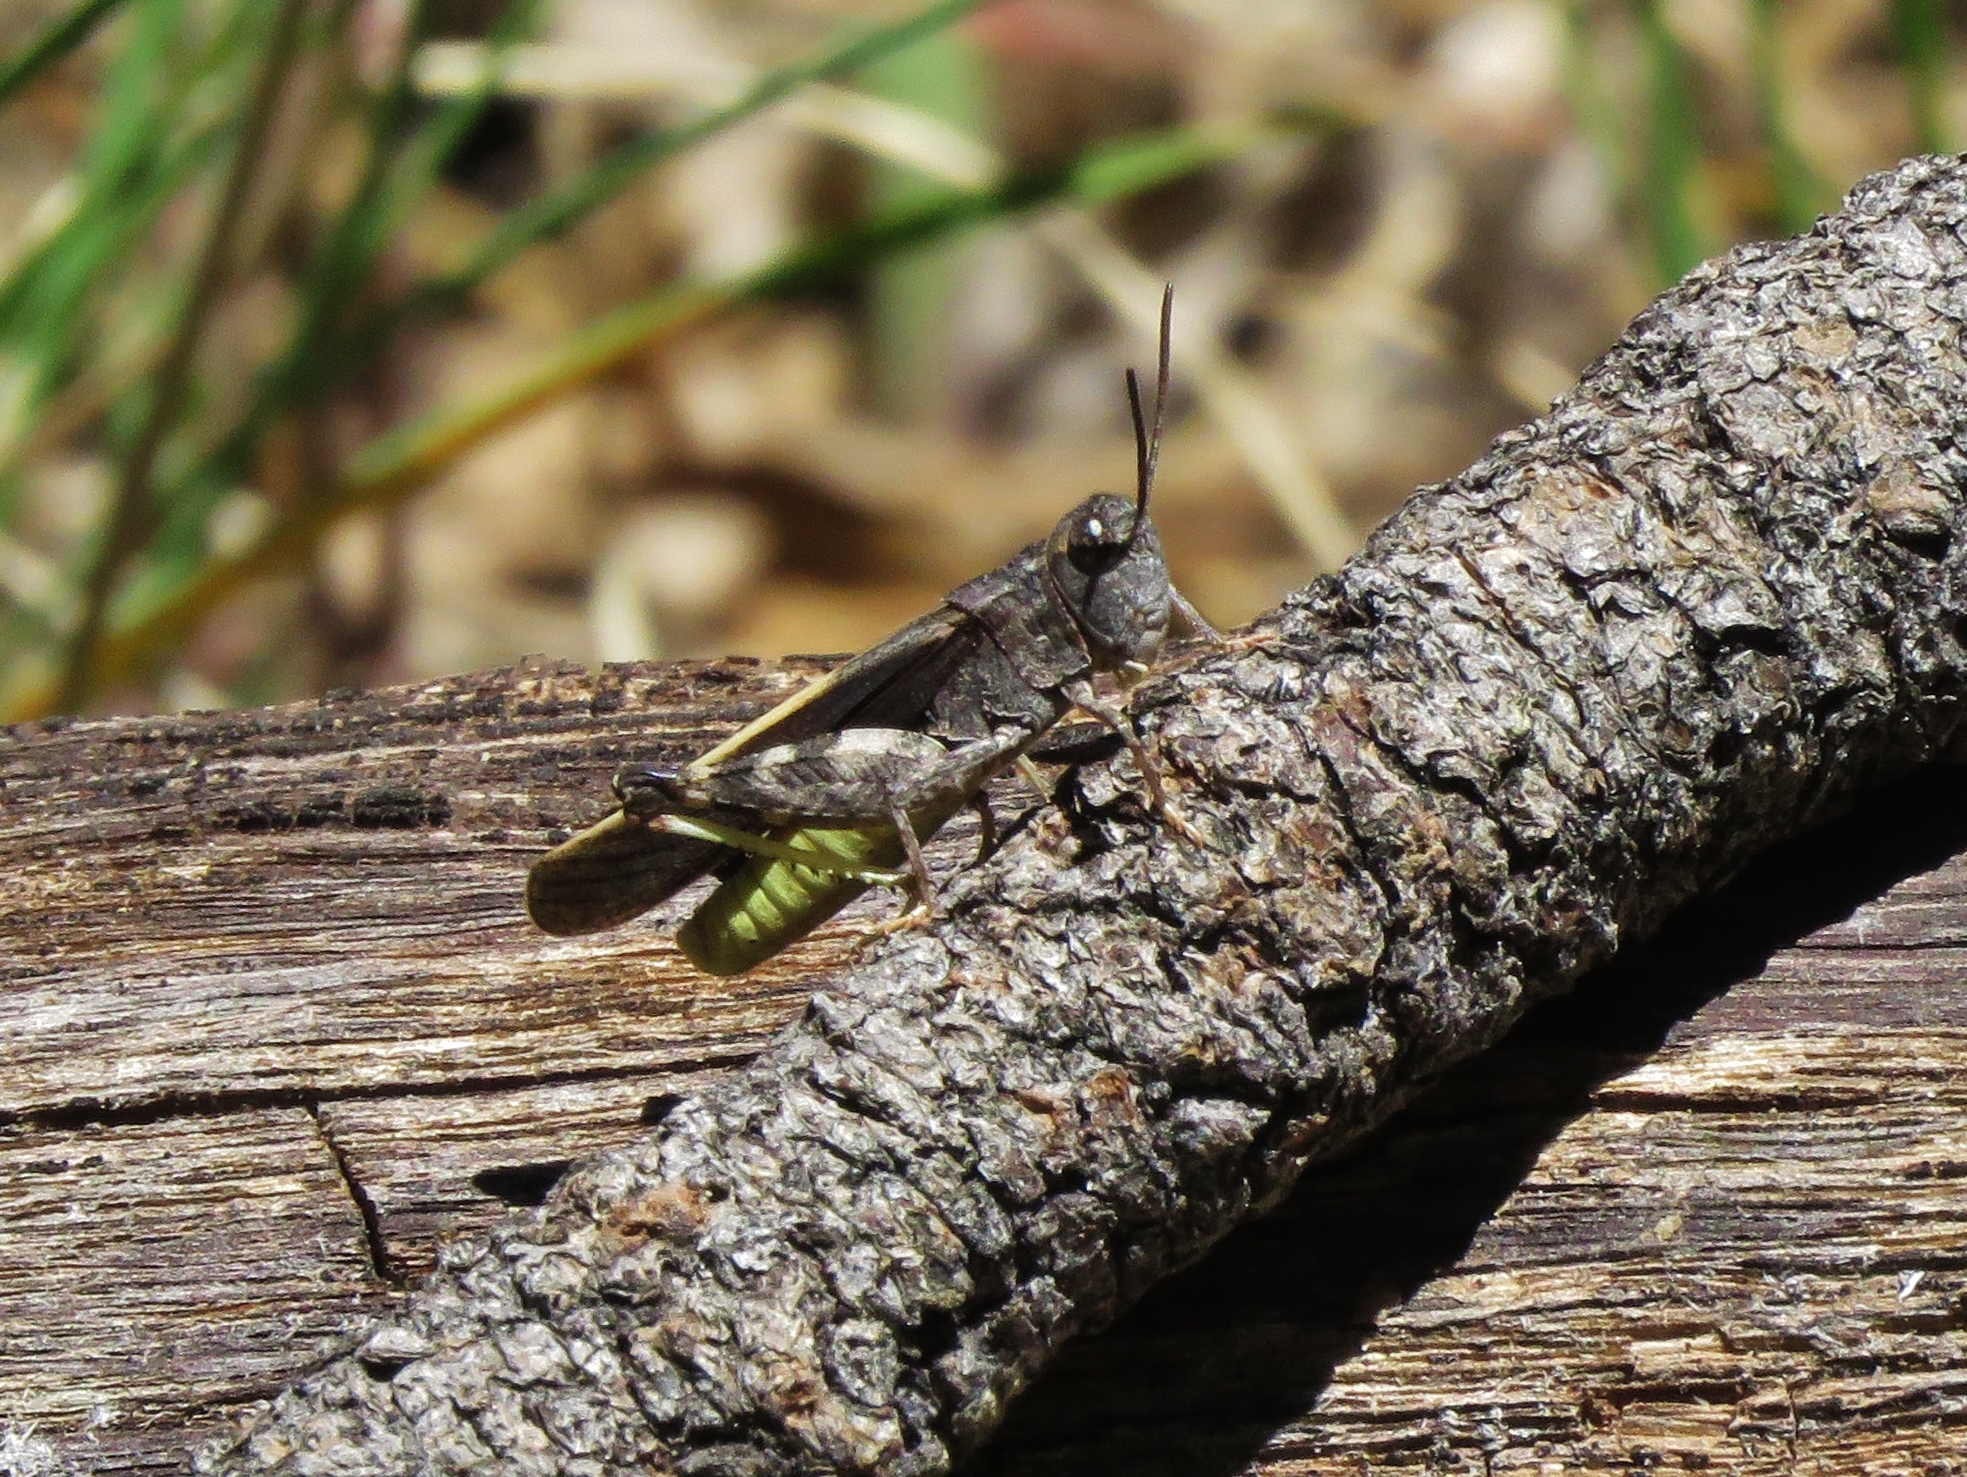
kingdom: Animalia
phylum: Arthropoda
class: Insecta
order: Orthoptera
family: Acrididae
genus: Arphia
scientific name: Arphia conspersa
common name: Speckle-winged rangeland grasshopper
